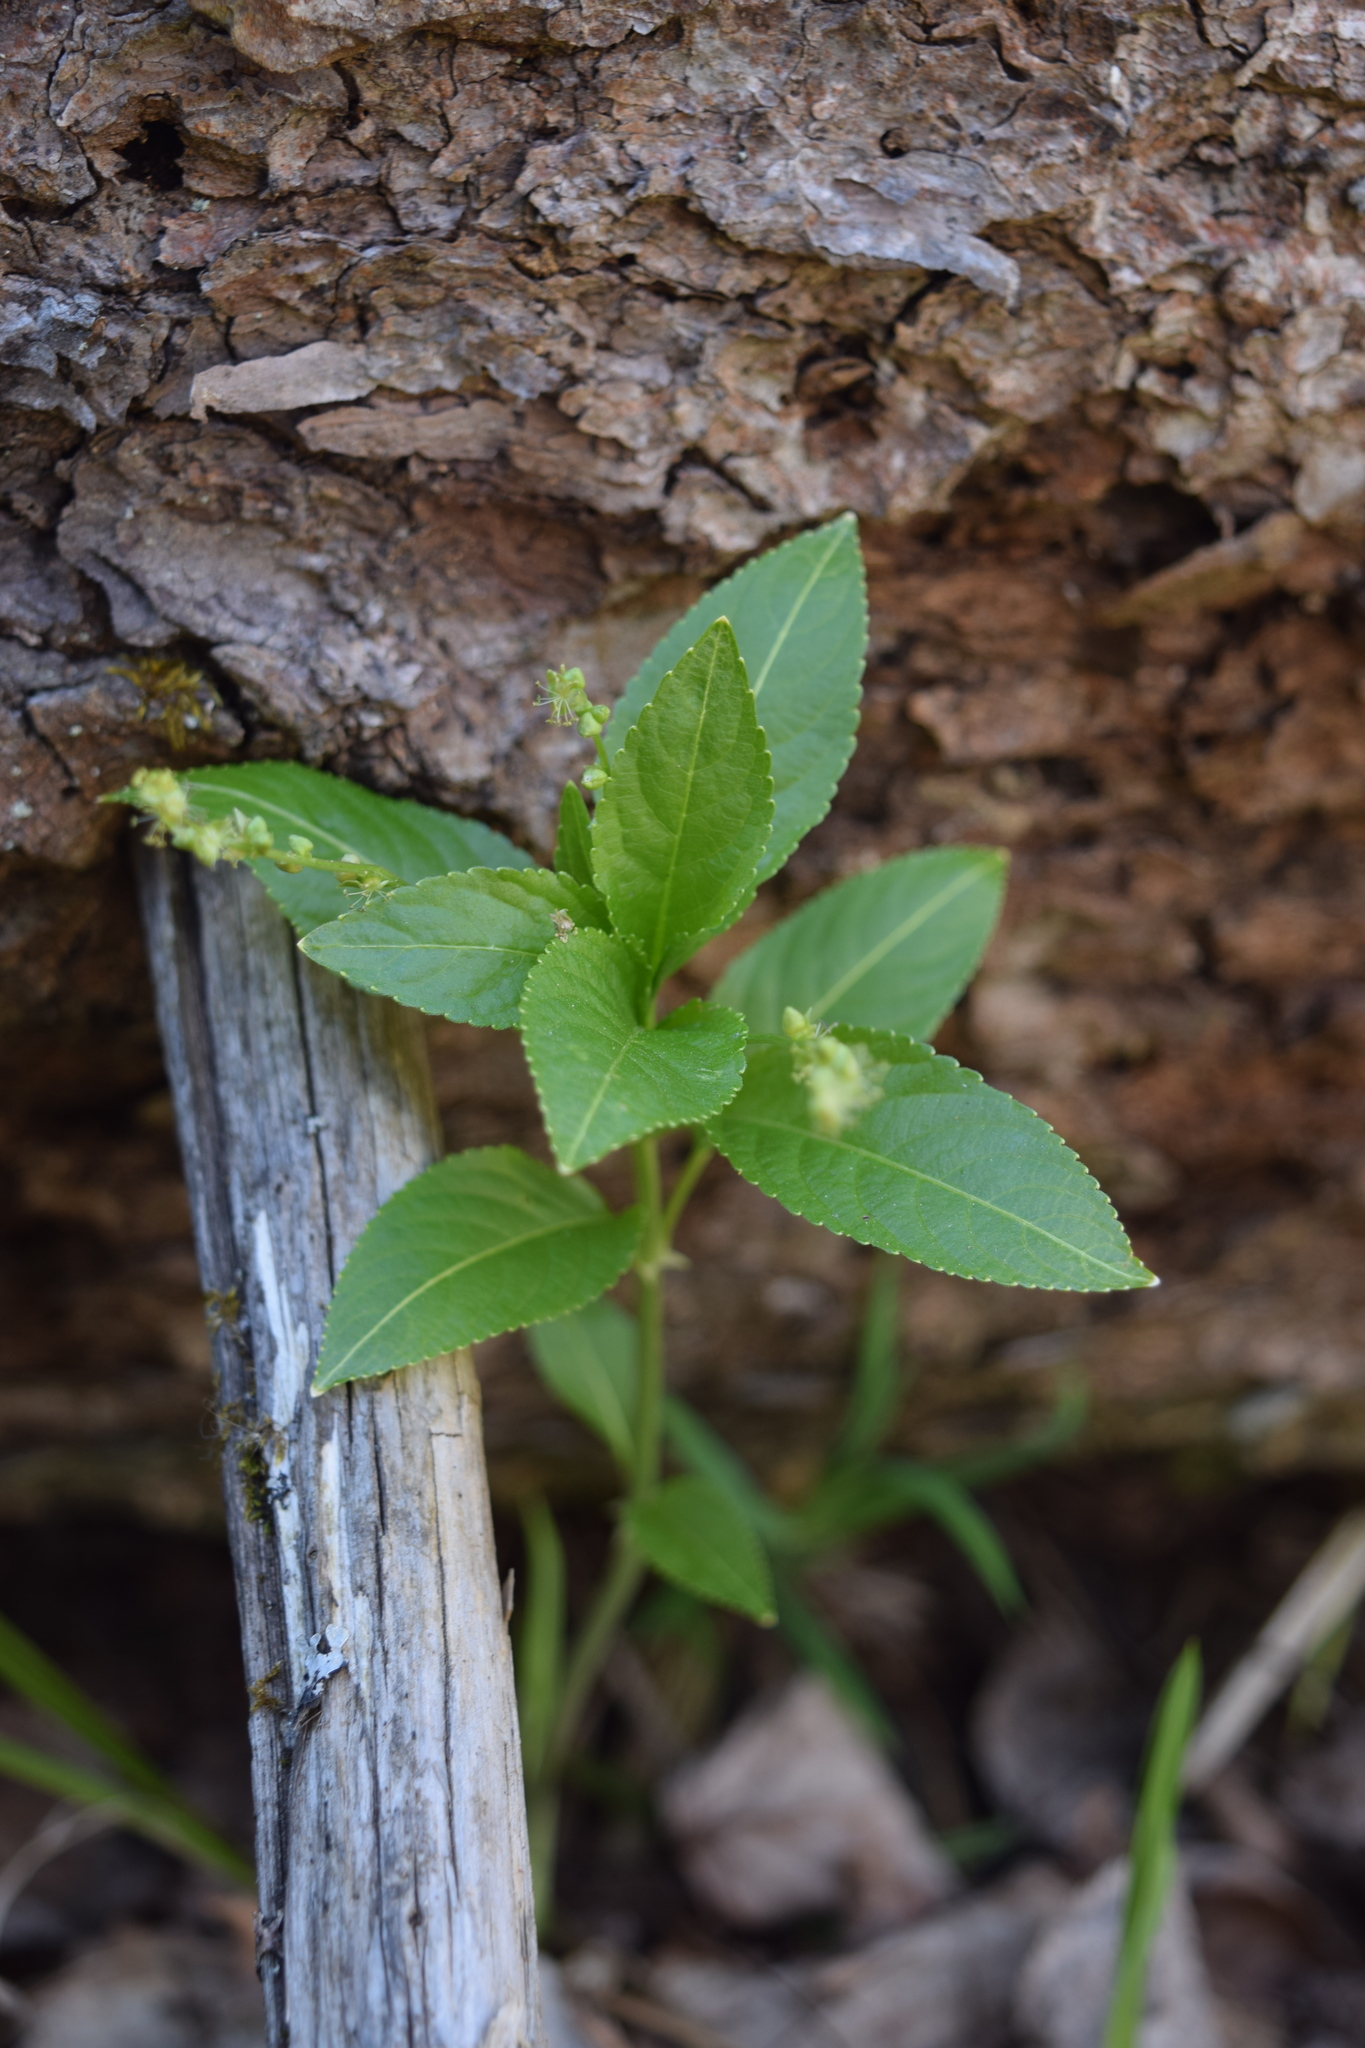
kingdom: Plantae
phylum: Tracheophyta
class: Magnoliopsida
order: Malpighiales
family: Euphorbiaceae
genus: Mercurialis
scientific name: Mercurialis perennis
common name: Dog mercury
